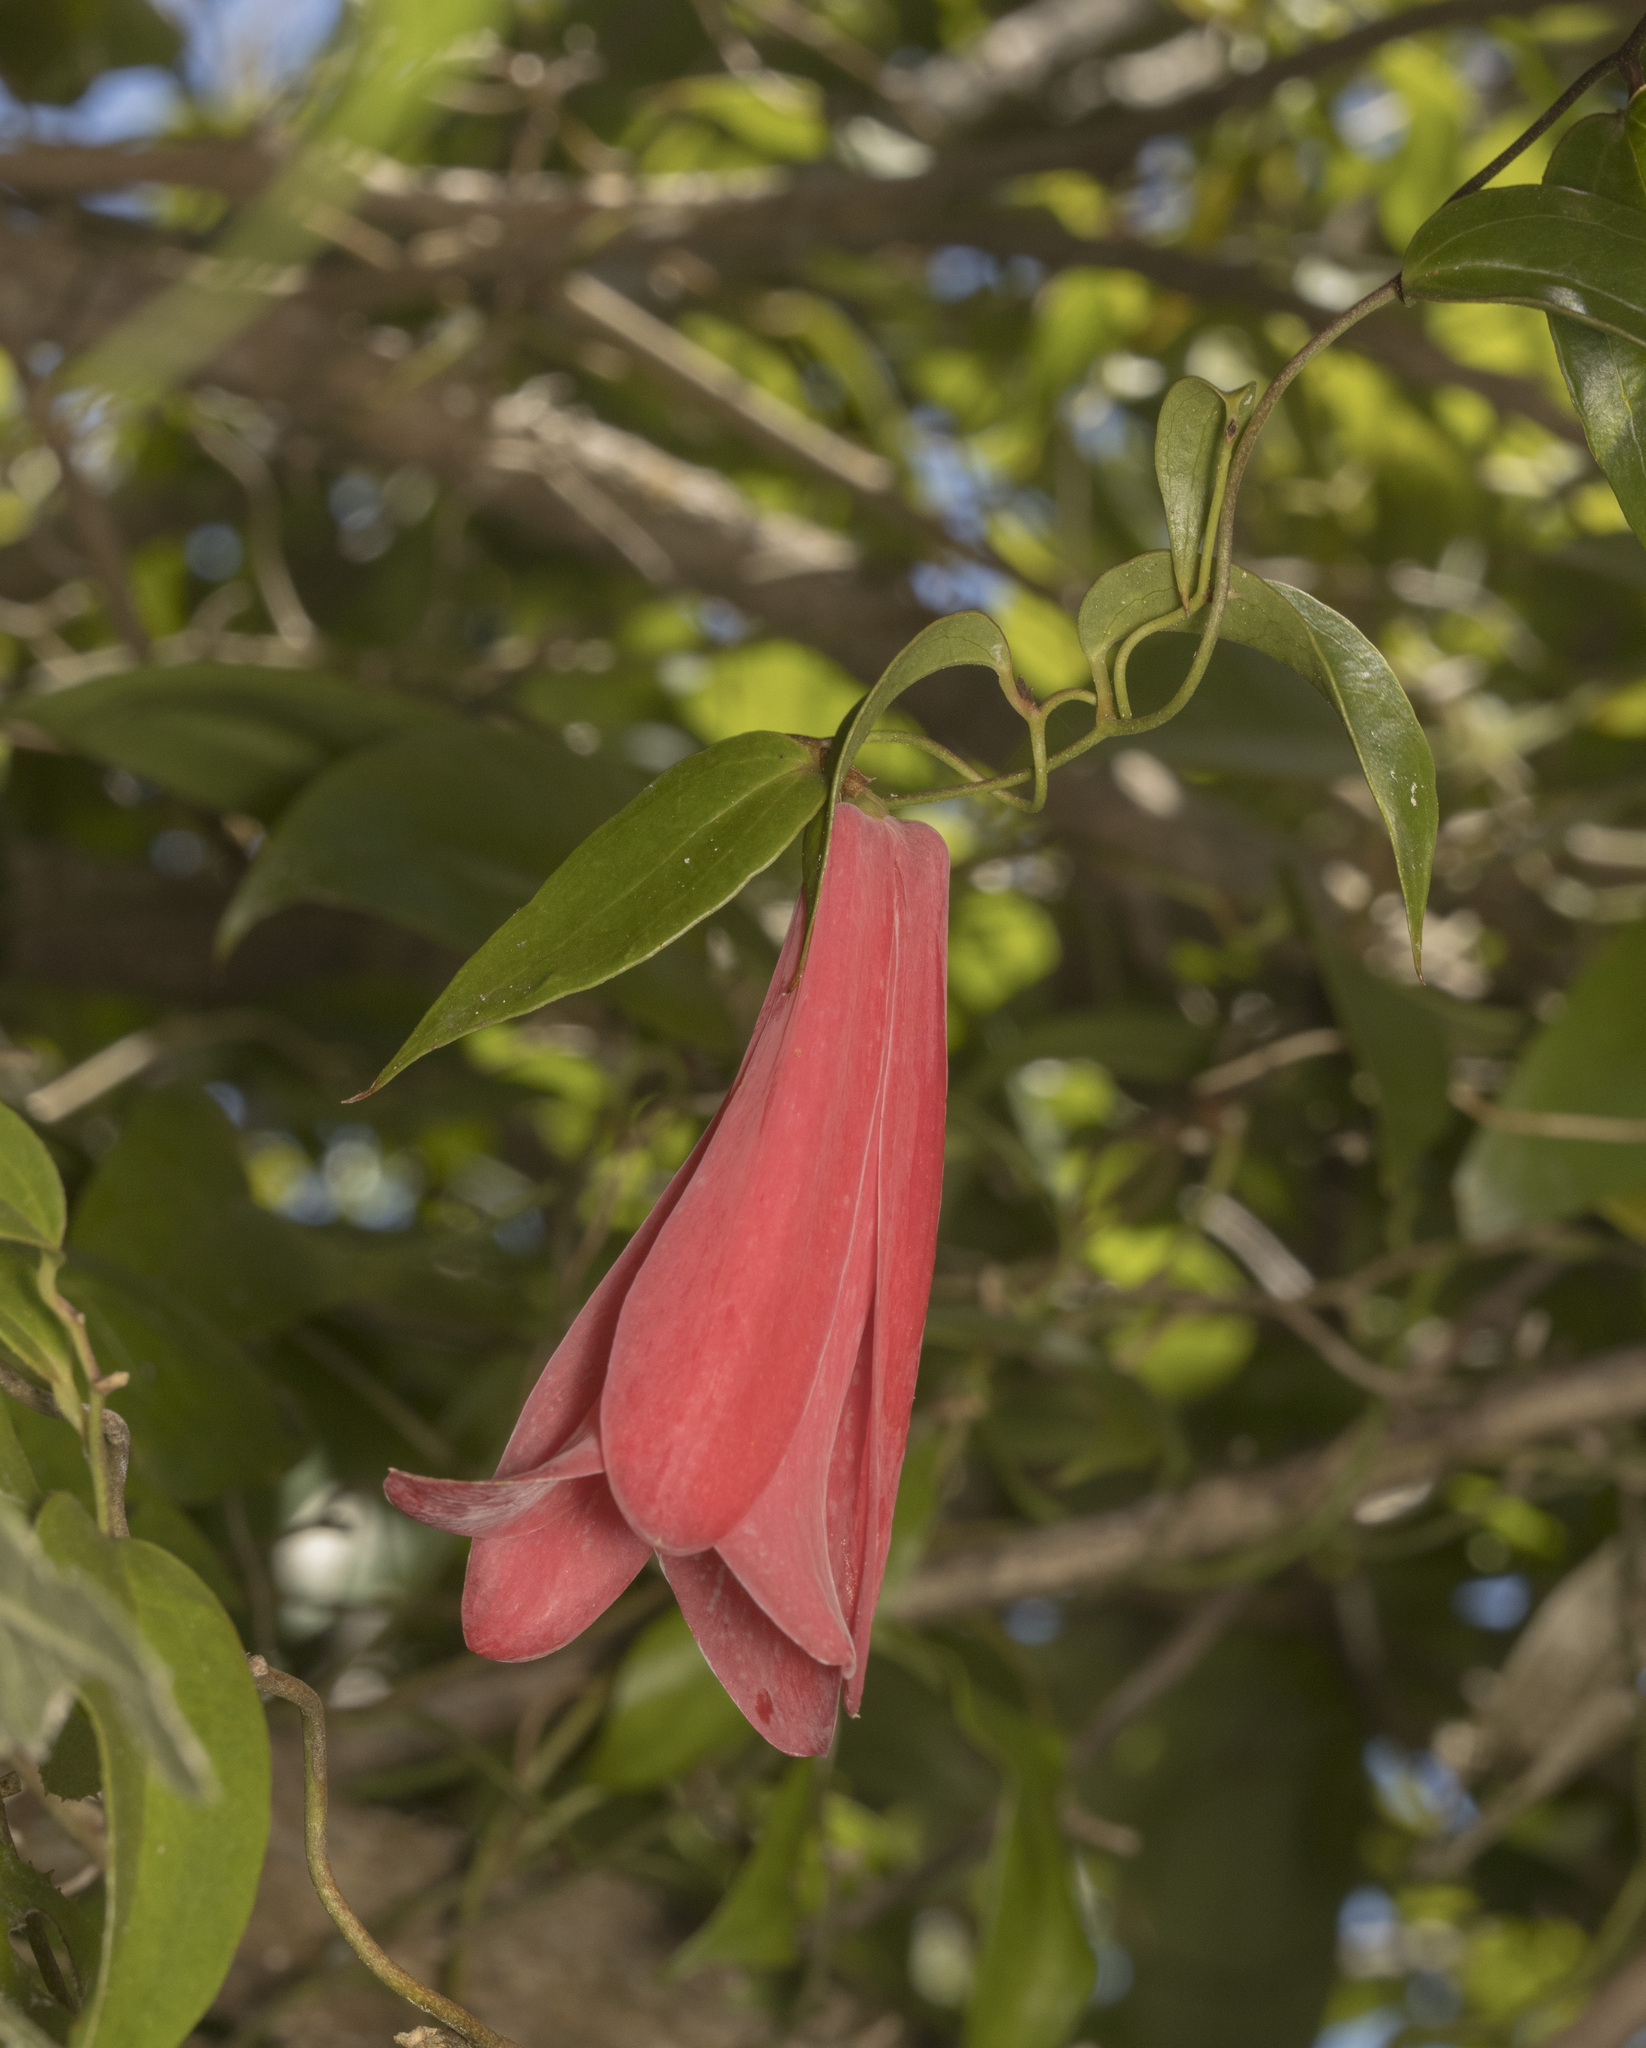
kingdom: Plantae
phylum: Tracheophyta
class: Liliopsida
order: Liliales
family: Philesiaceae
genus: Lapageria
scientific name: Lapageria rosea
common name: Chilean-bellflower
